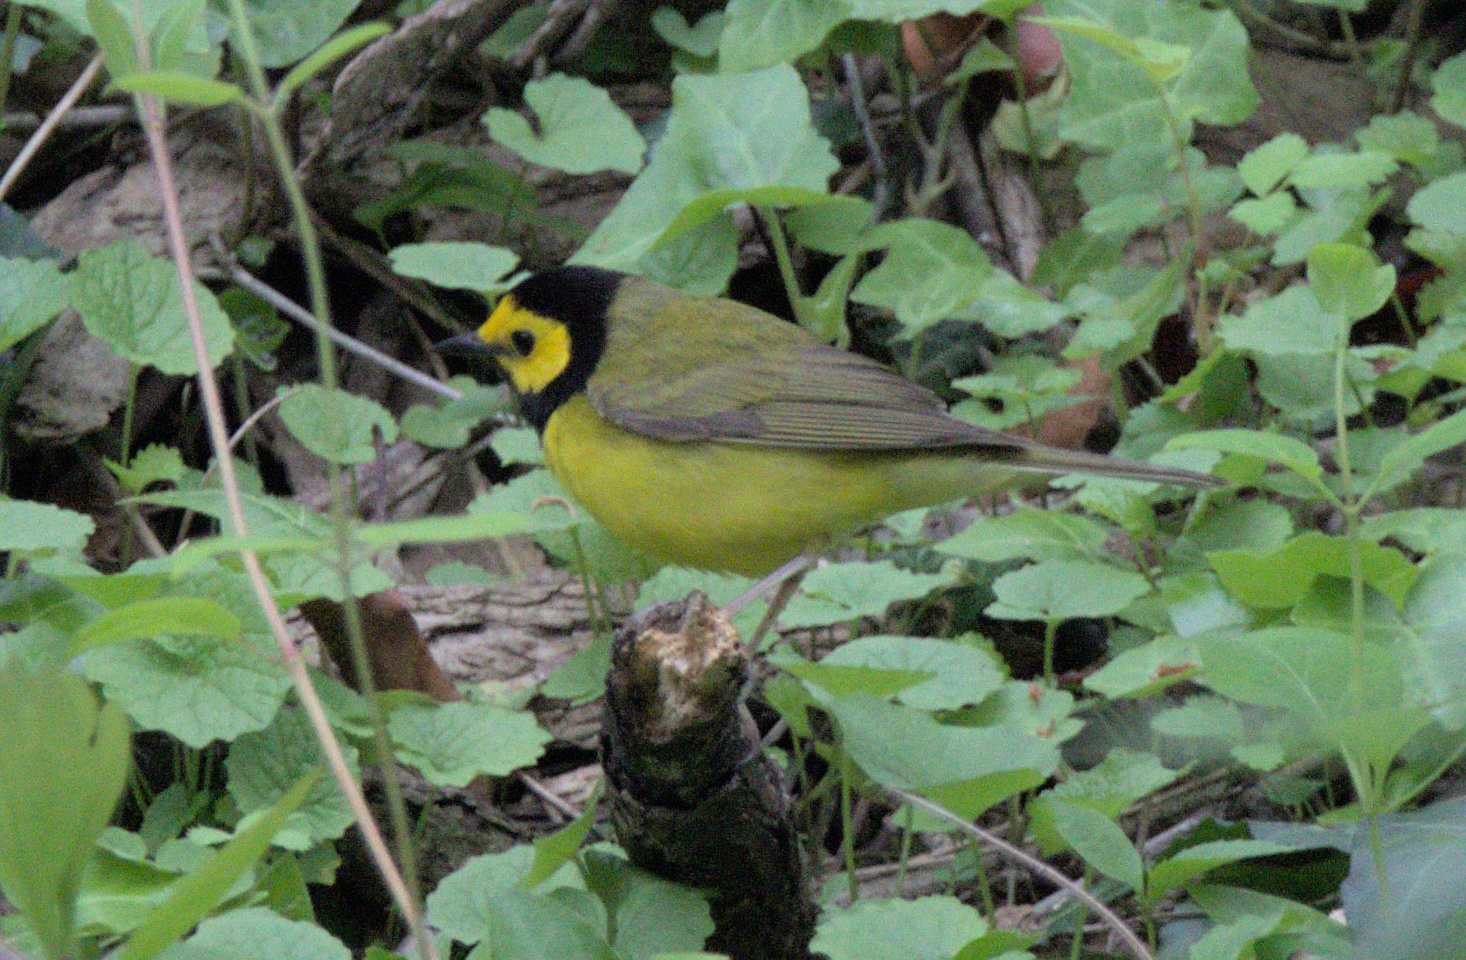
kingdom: Animalia
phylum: Chordata
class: Aves
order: Passeriformes
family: Parulidae
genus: Setophaga
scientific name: Setophaga citrina
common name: Hooded warbler
